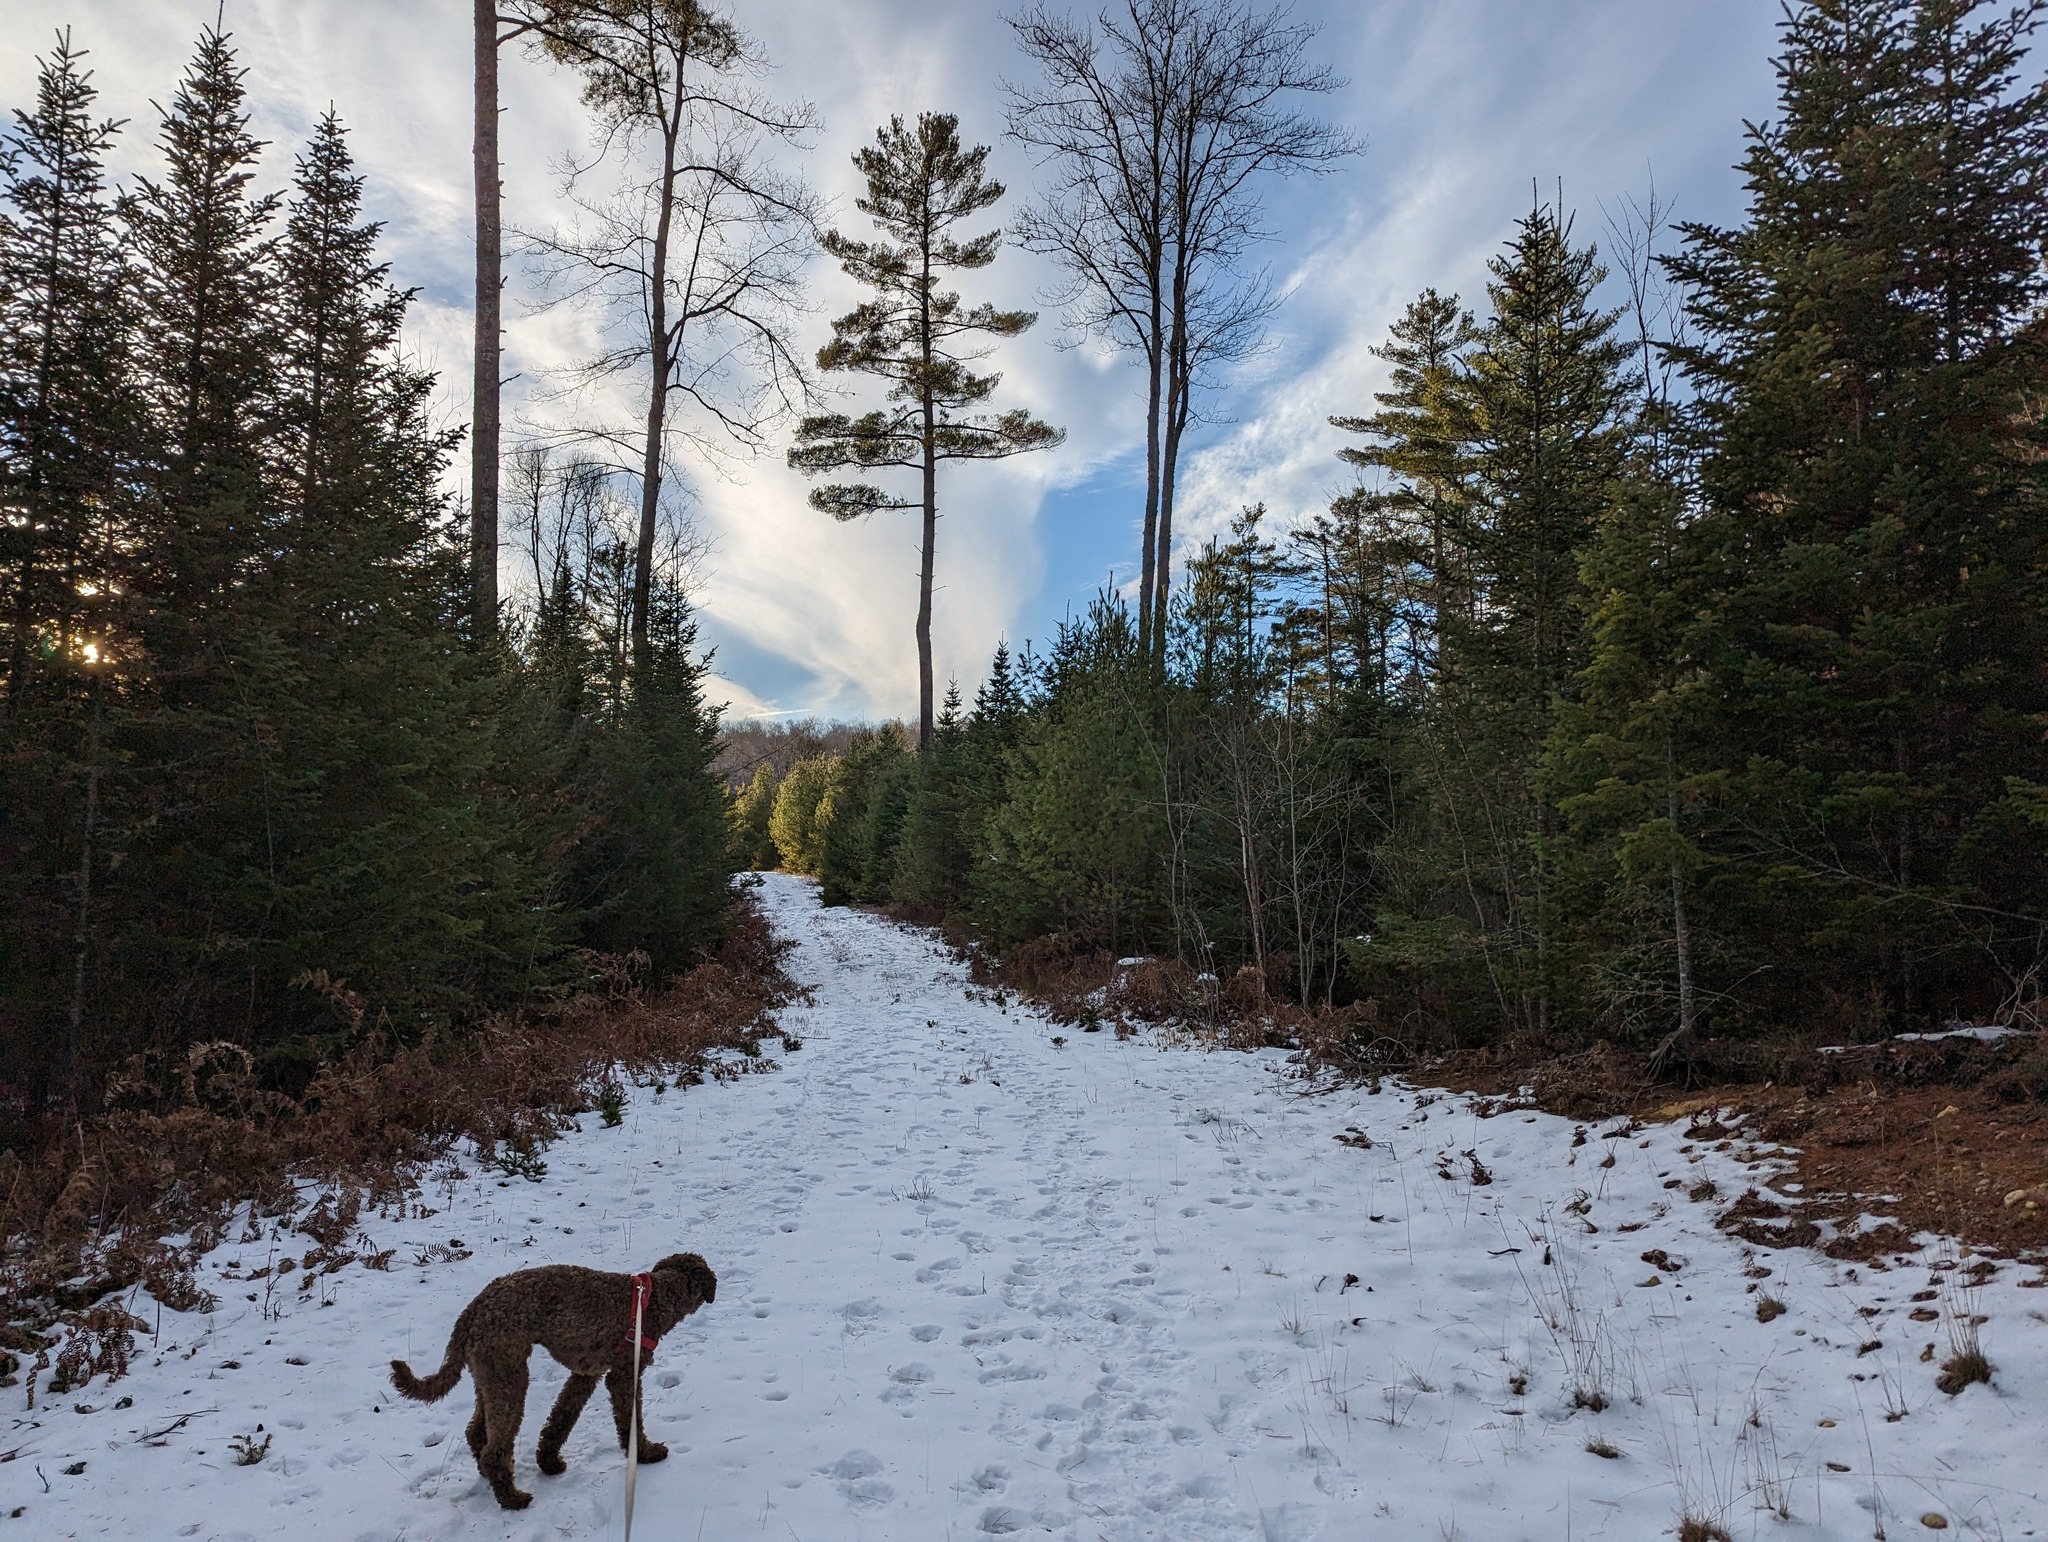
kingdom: Plantae
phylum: Tracheophyta
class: Pinopsida
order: Pinales
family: Pinaceae
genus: Pinus
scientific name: Pinus strobus
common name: Weymouth pine
